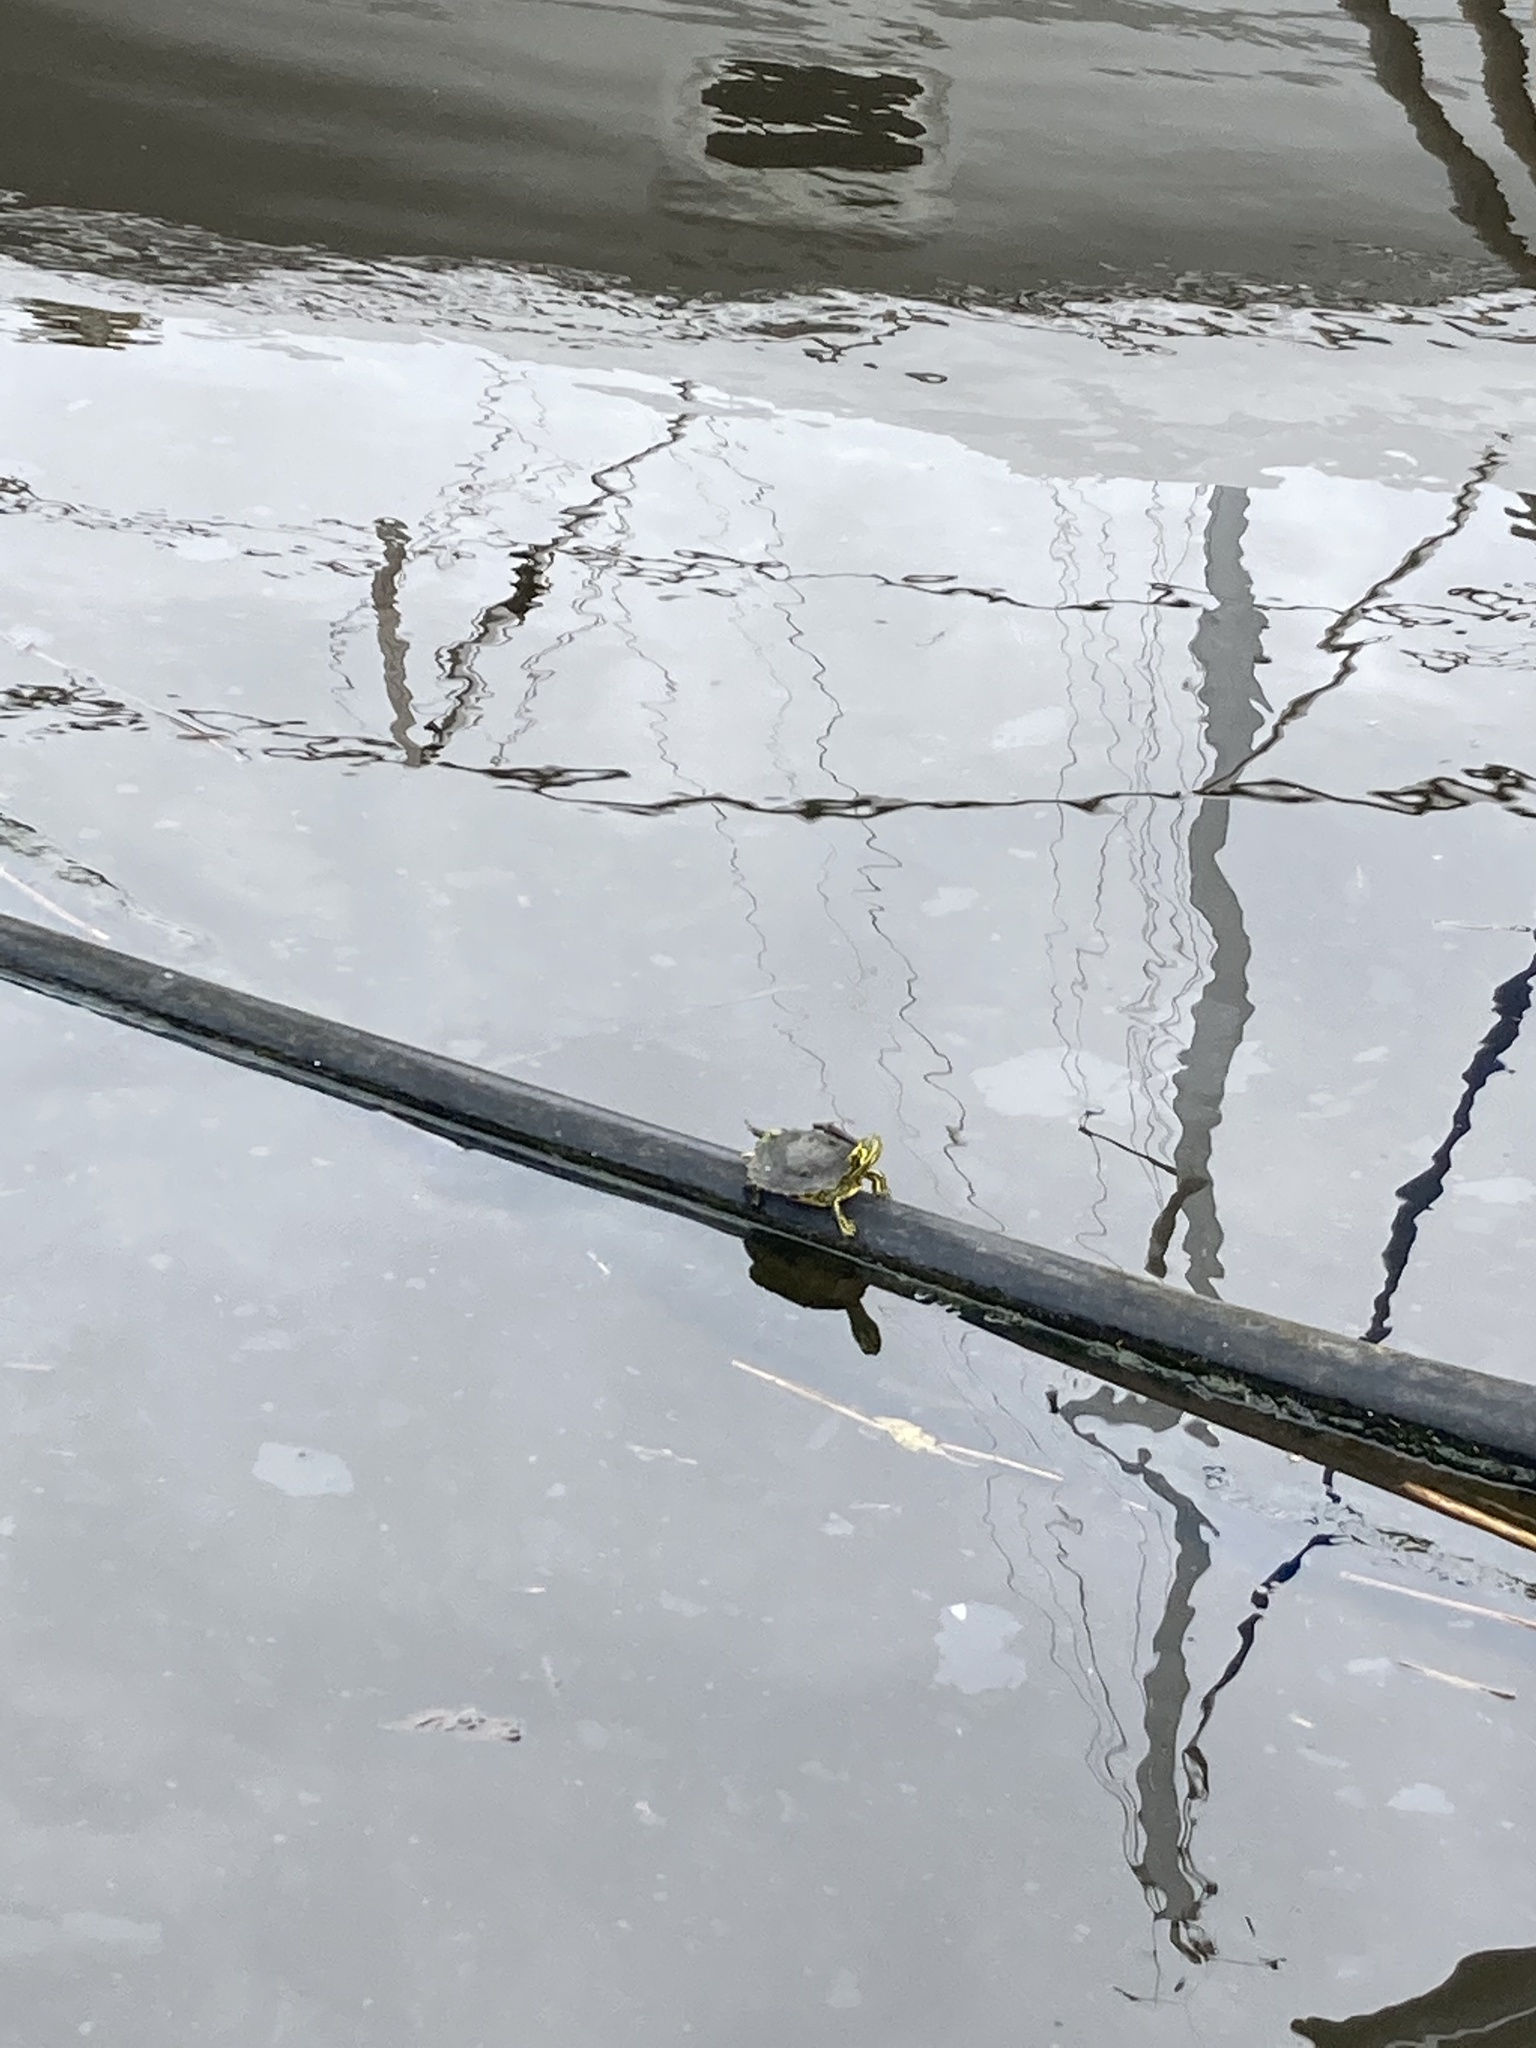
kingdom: Animalia
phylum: Chordata
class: Testudines
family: Emydidae
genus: Trachemys
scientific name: Trachemys scripta
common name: Slider
